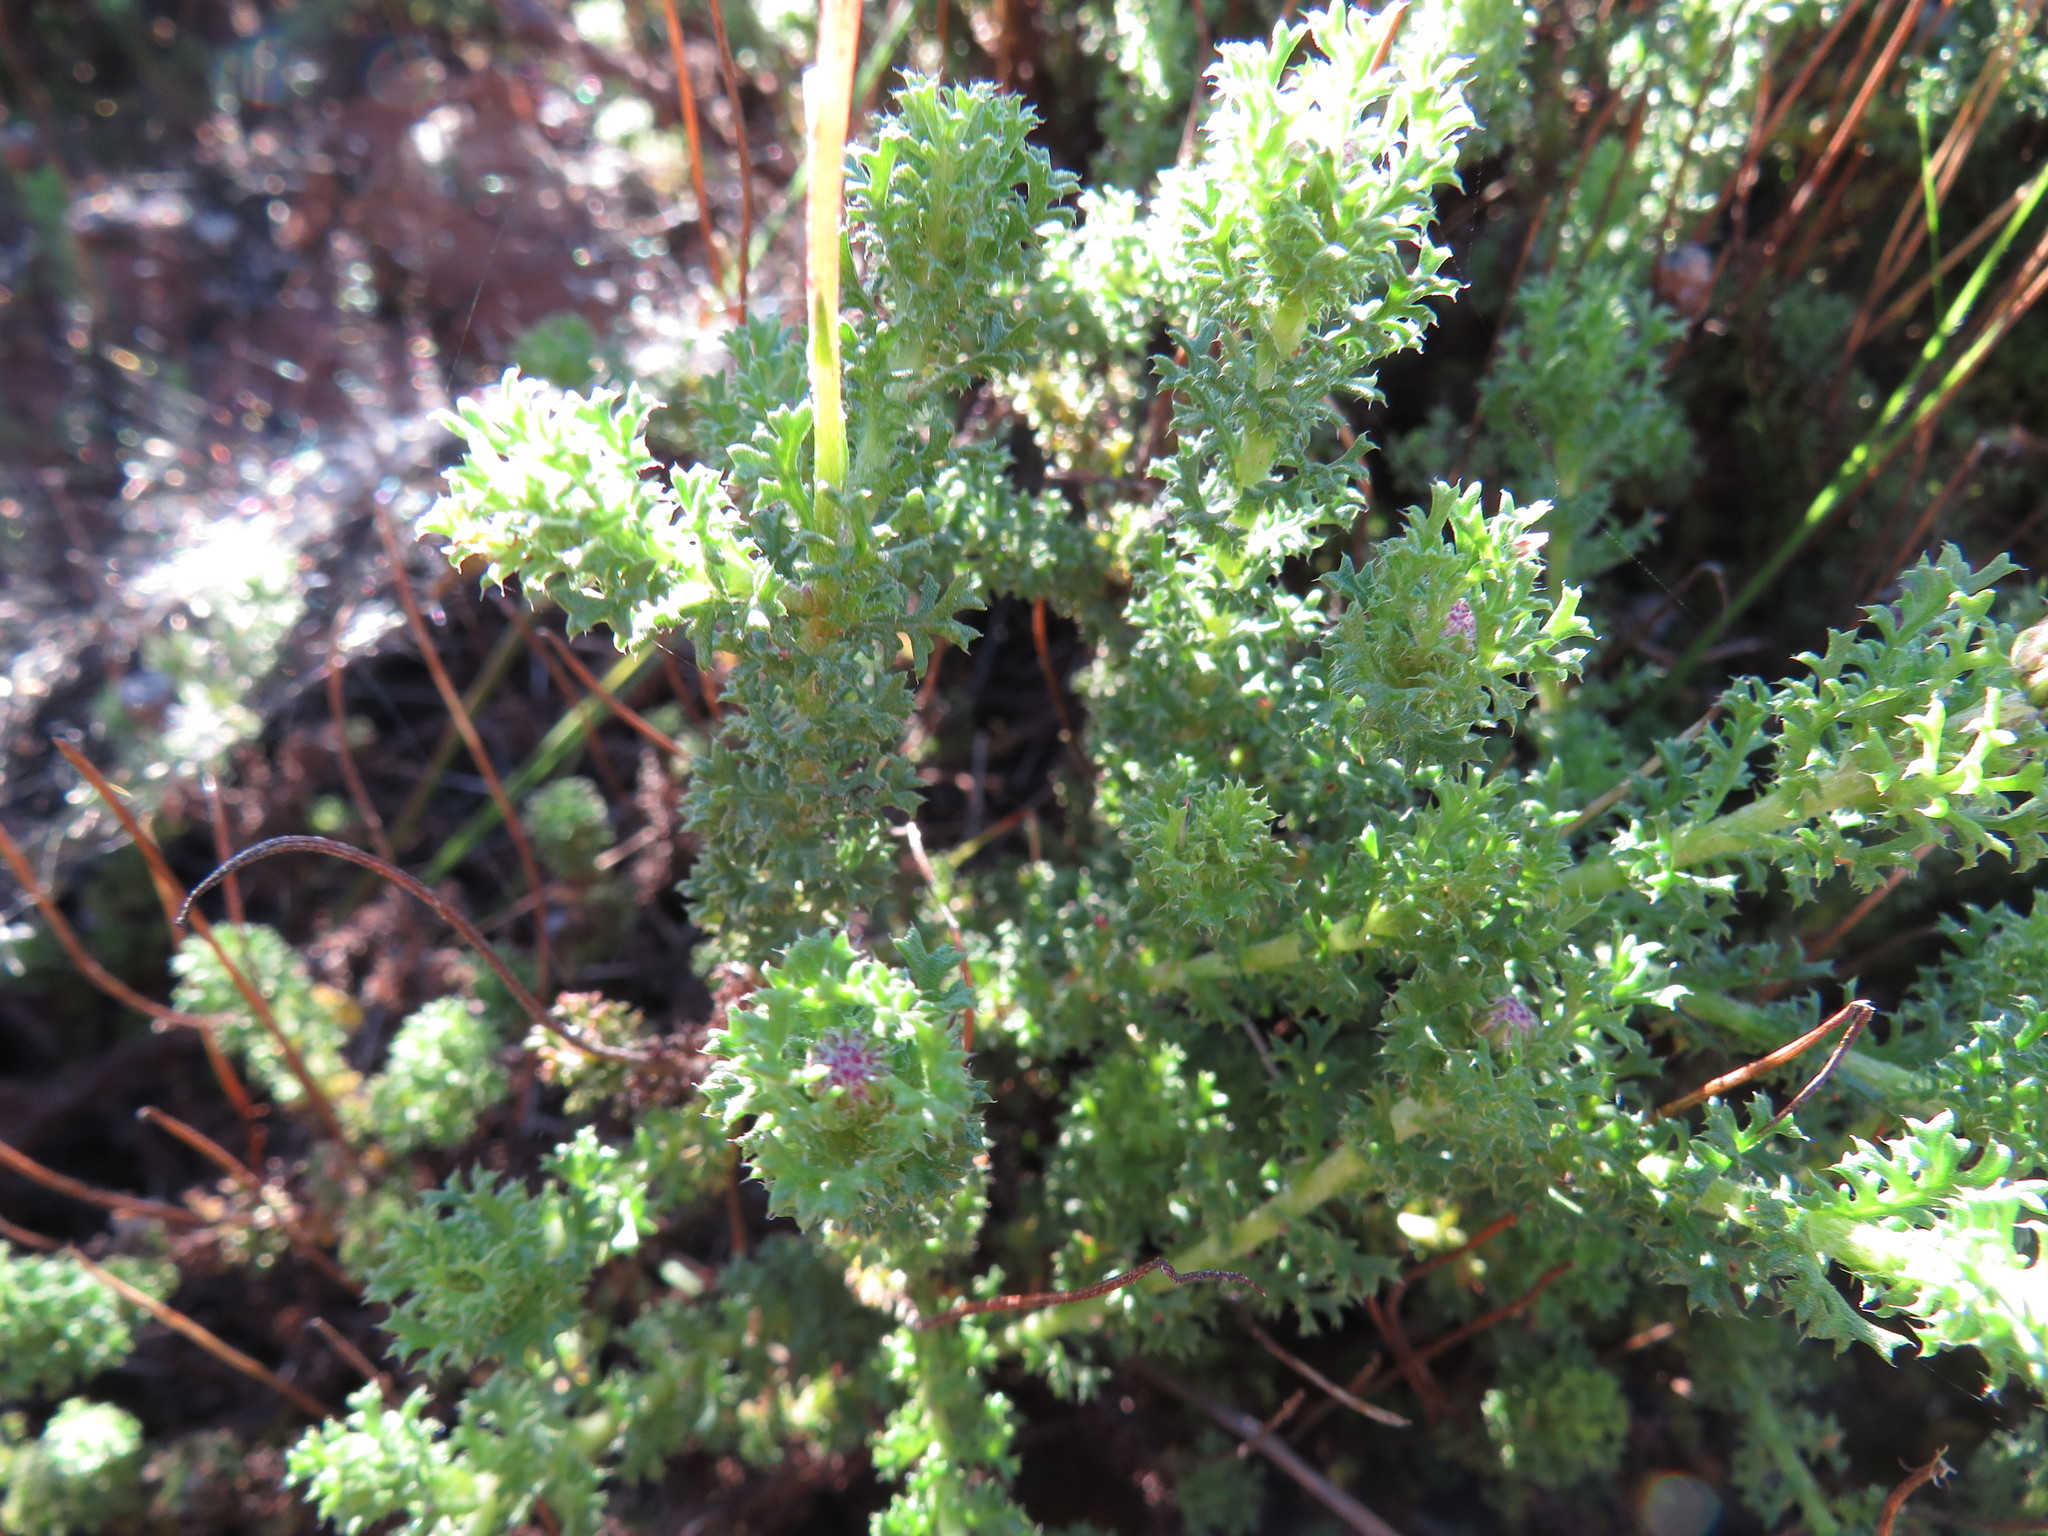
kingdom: Plantae
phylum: Tracheophyta
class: Magnoliopsida
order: Asterales
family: Asteraceae
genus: Ursinia
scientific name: Ursinia dentata
